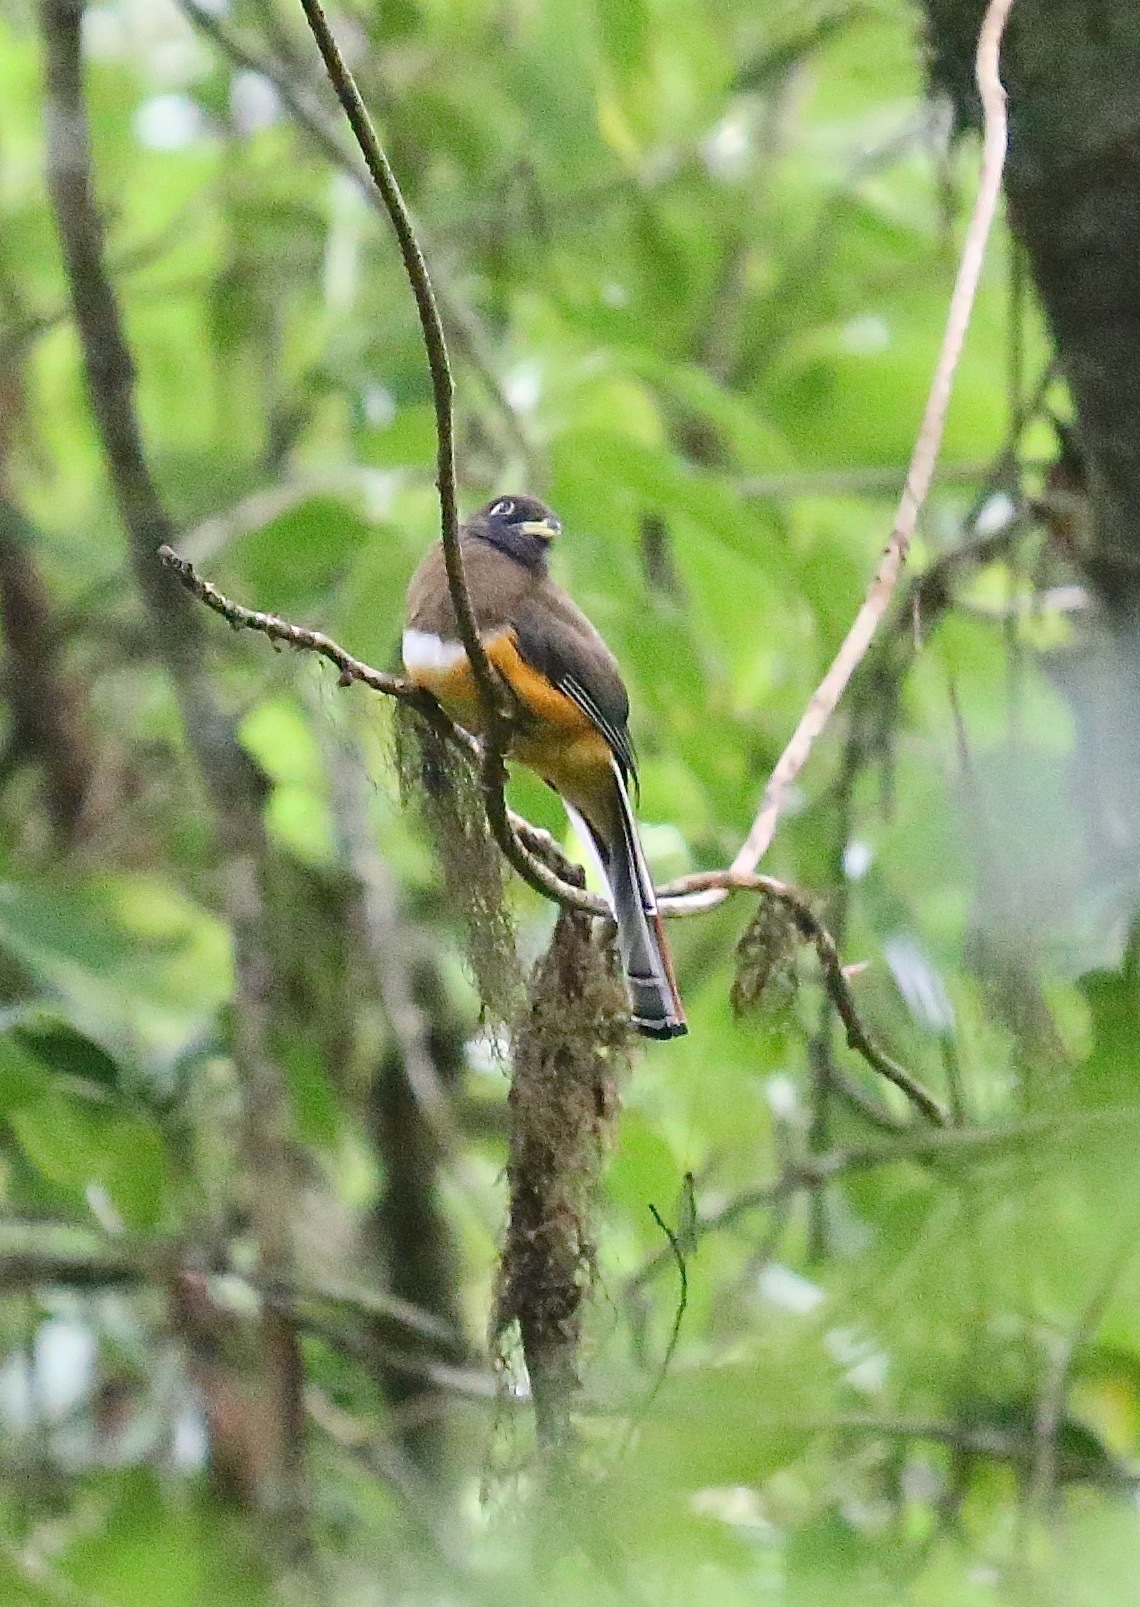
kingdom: Animalia
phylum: Chordata
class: Aves
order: Trogoniformes
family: Trogonidae
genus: Trogon
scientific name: Trogon collaris
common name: Collared trogon
